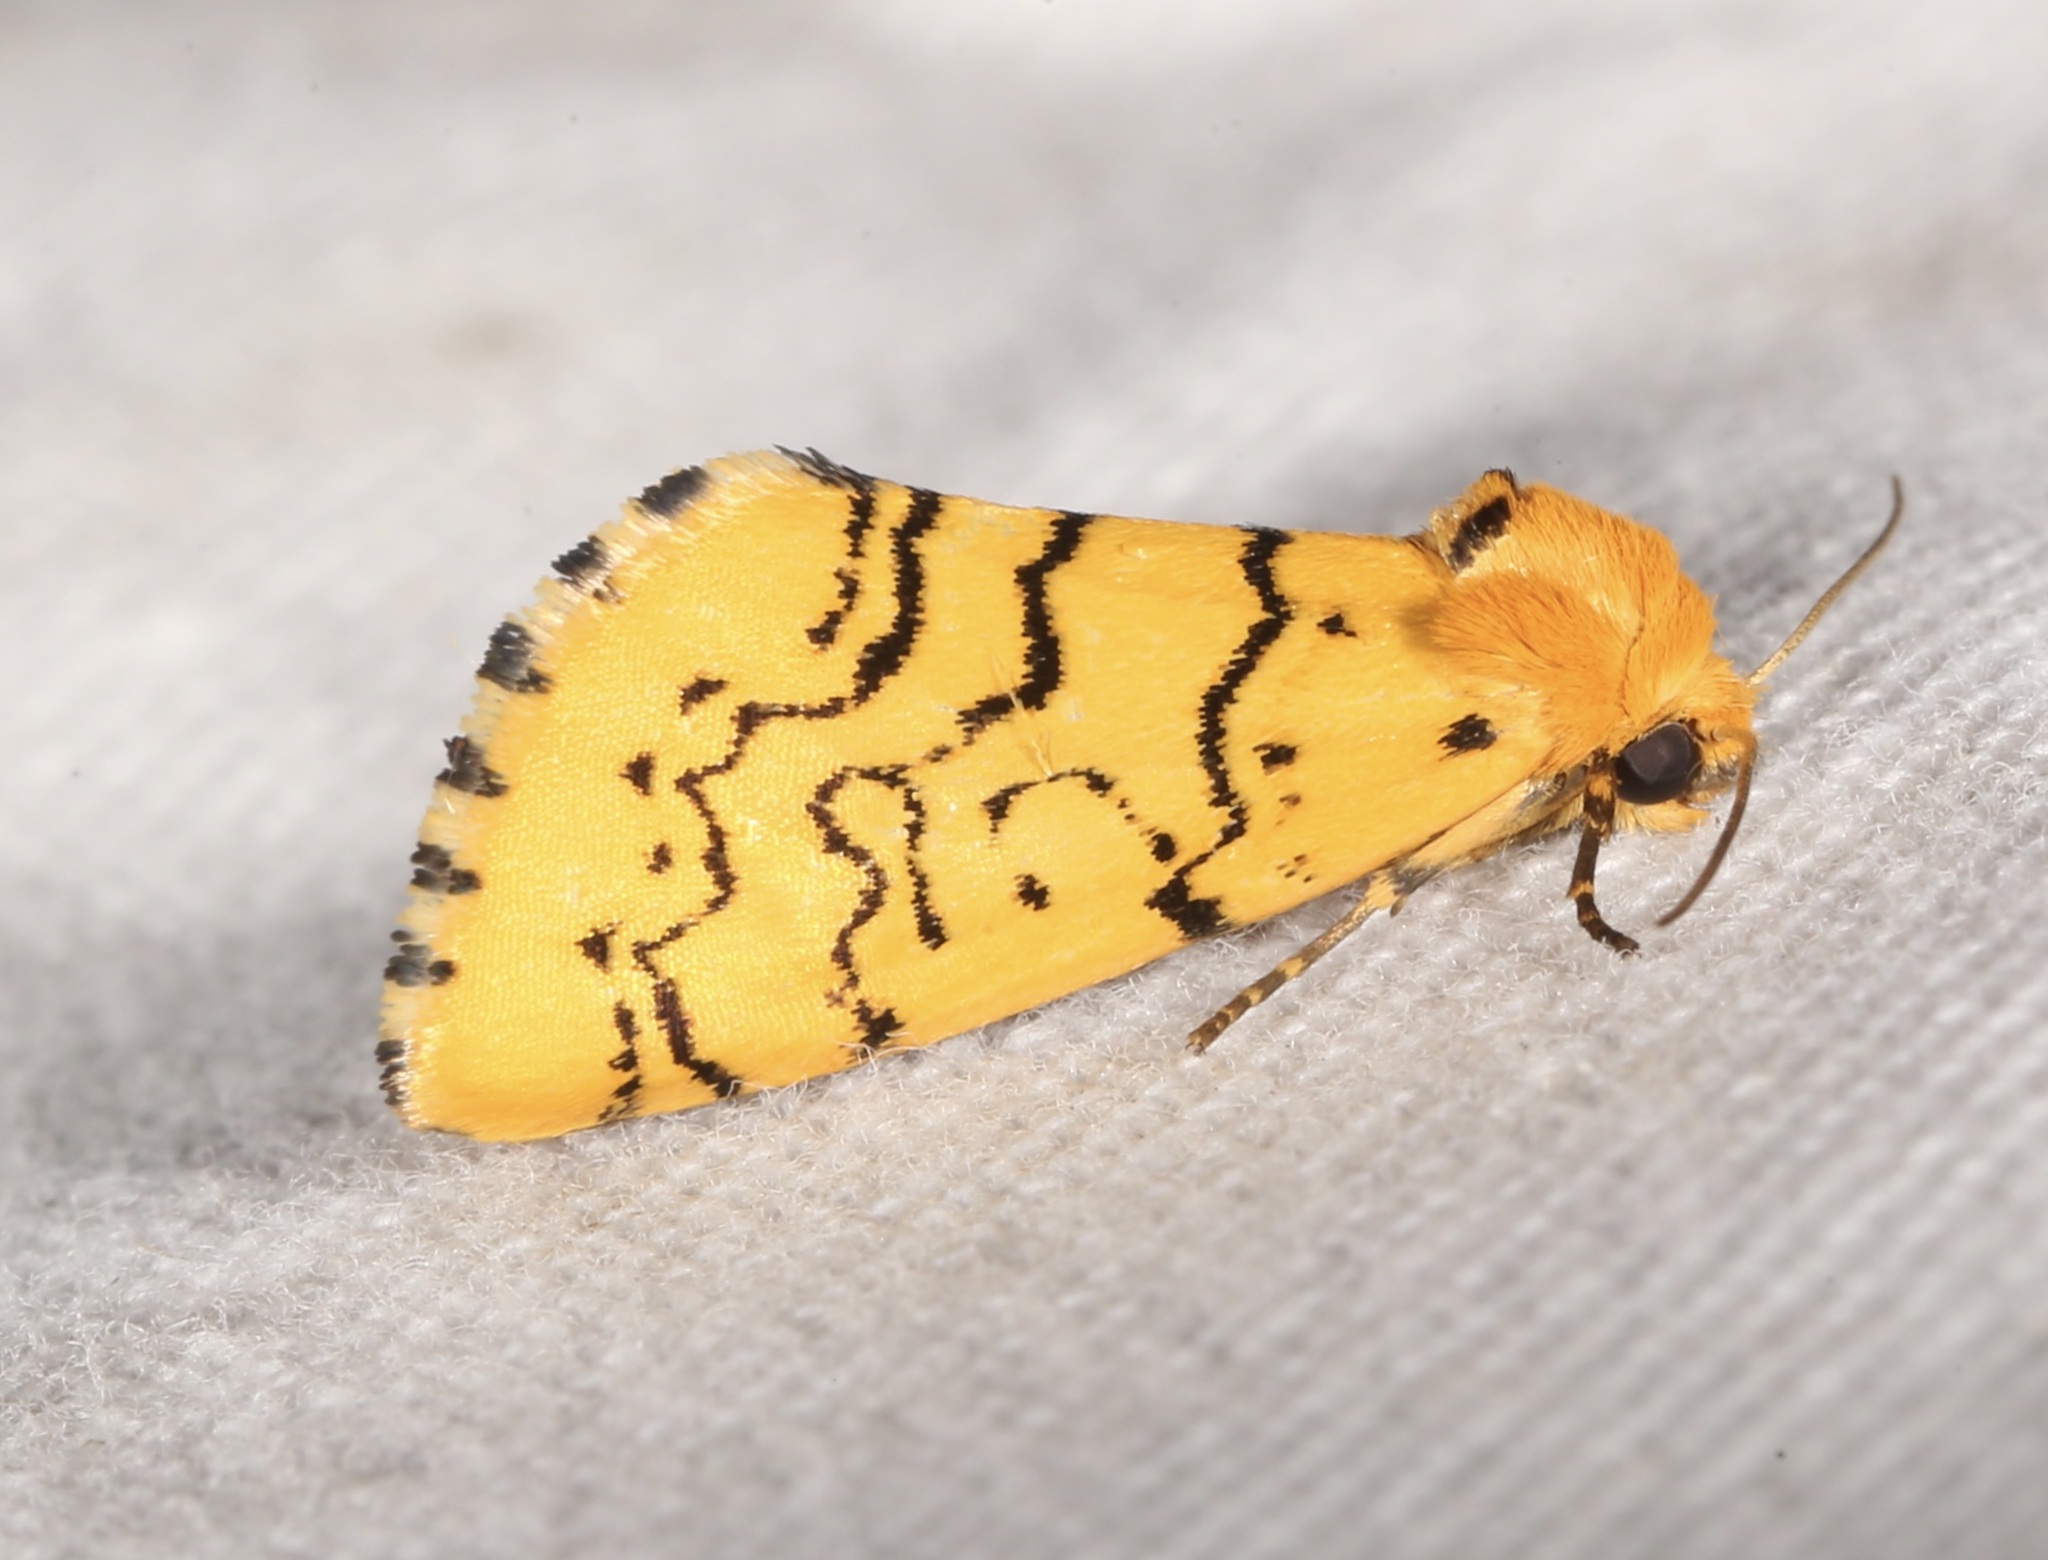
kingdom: Animalia
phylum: Arthropoda
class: Insecta
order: Lepidoptera
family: Noctuidae
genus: Chrysoecia
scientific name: Chrysoecia atrolinea
